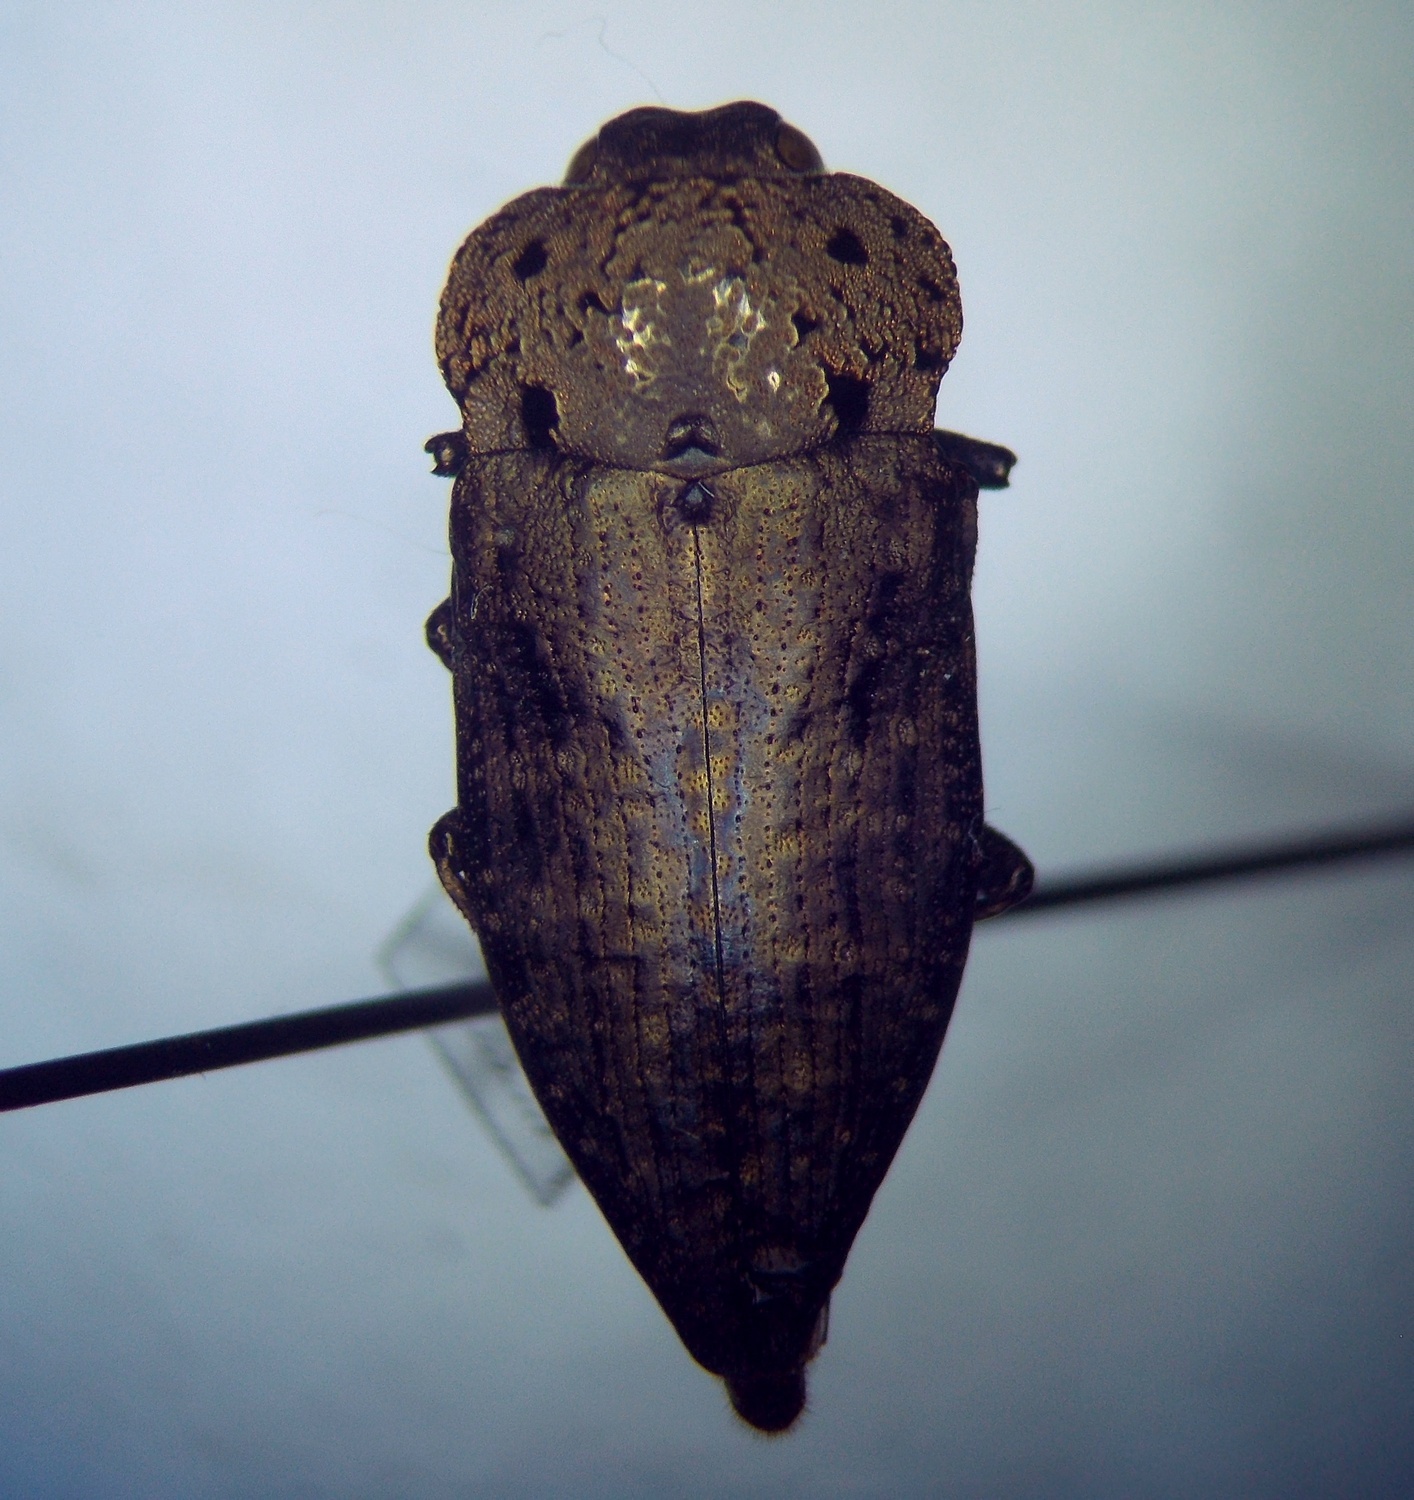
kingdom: Animalia
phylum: Arthropoda
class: Insecta
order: Coleoptera
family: Buprestidae
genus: Capnodis
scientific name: Capnodis tenebricosa
